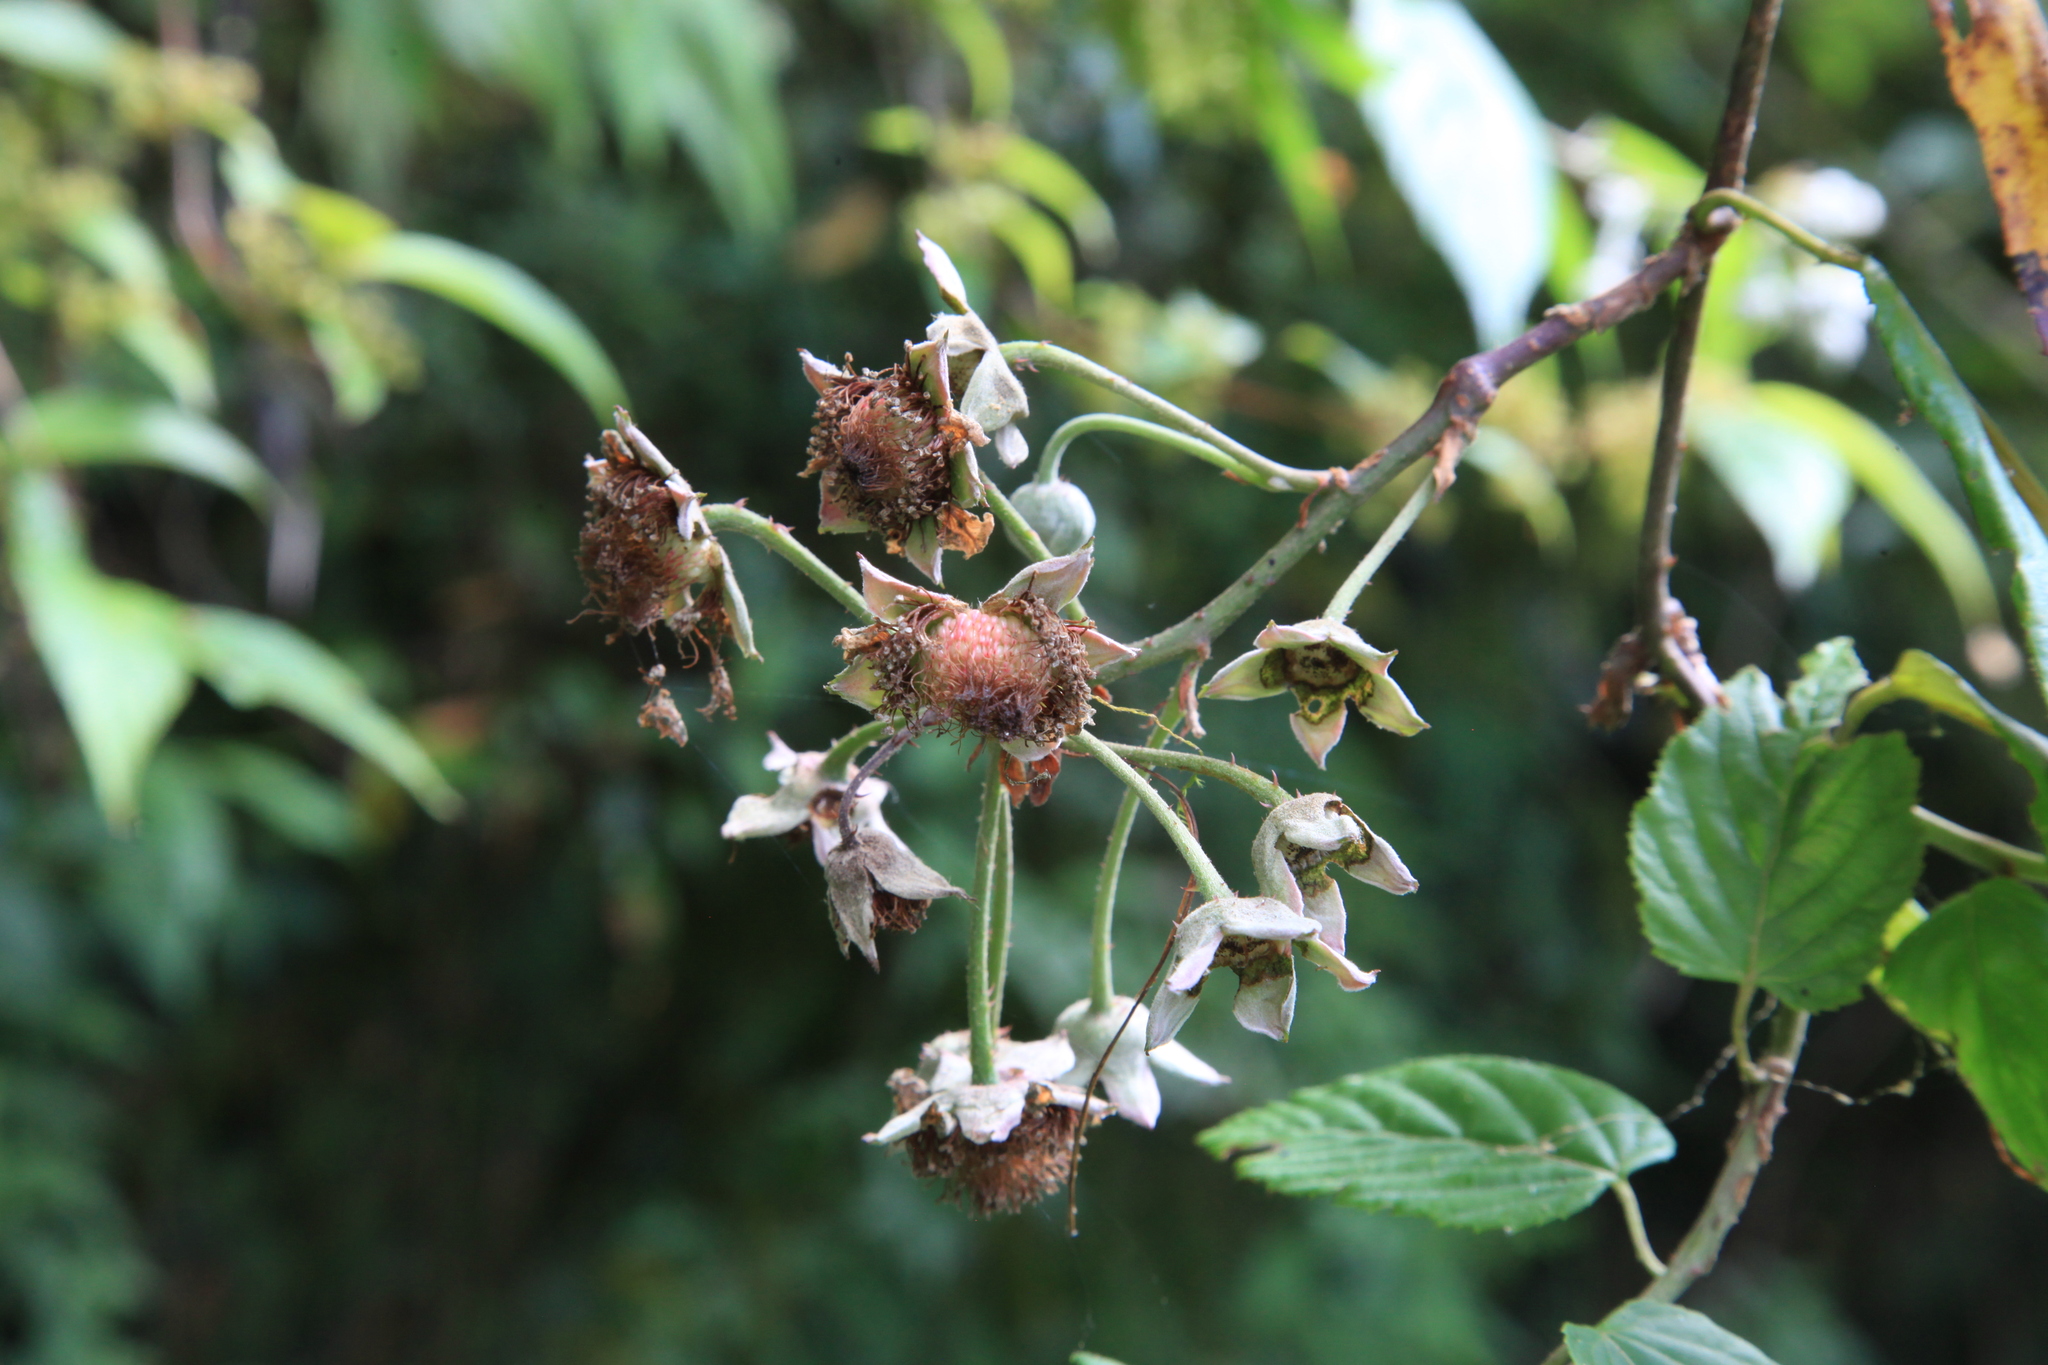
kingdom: Plantae
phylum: Tracheophyta
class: Magnoliopsida
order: Rosales
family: Rosaceae
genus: Rubus
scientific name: Rubus kawakamii
